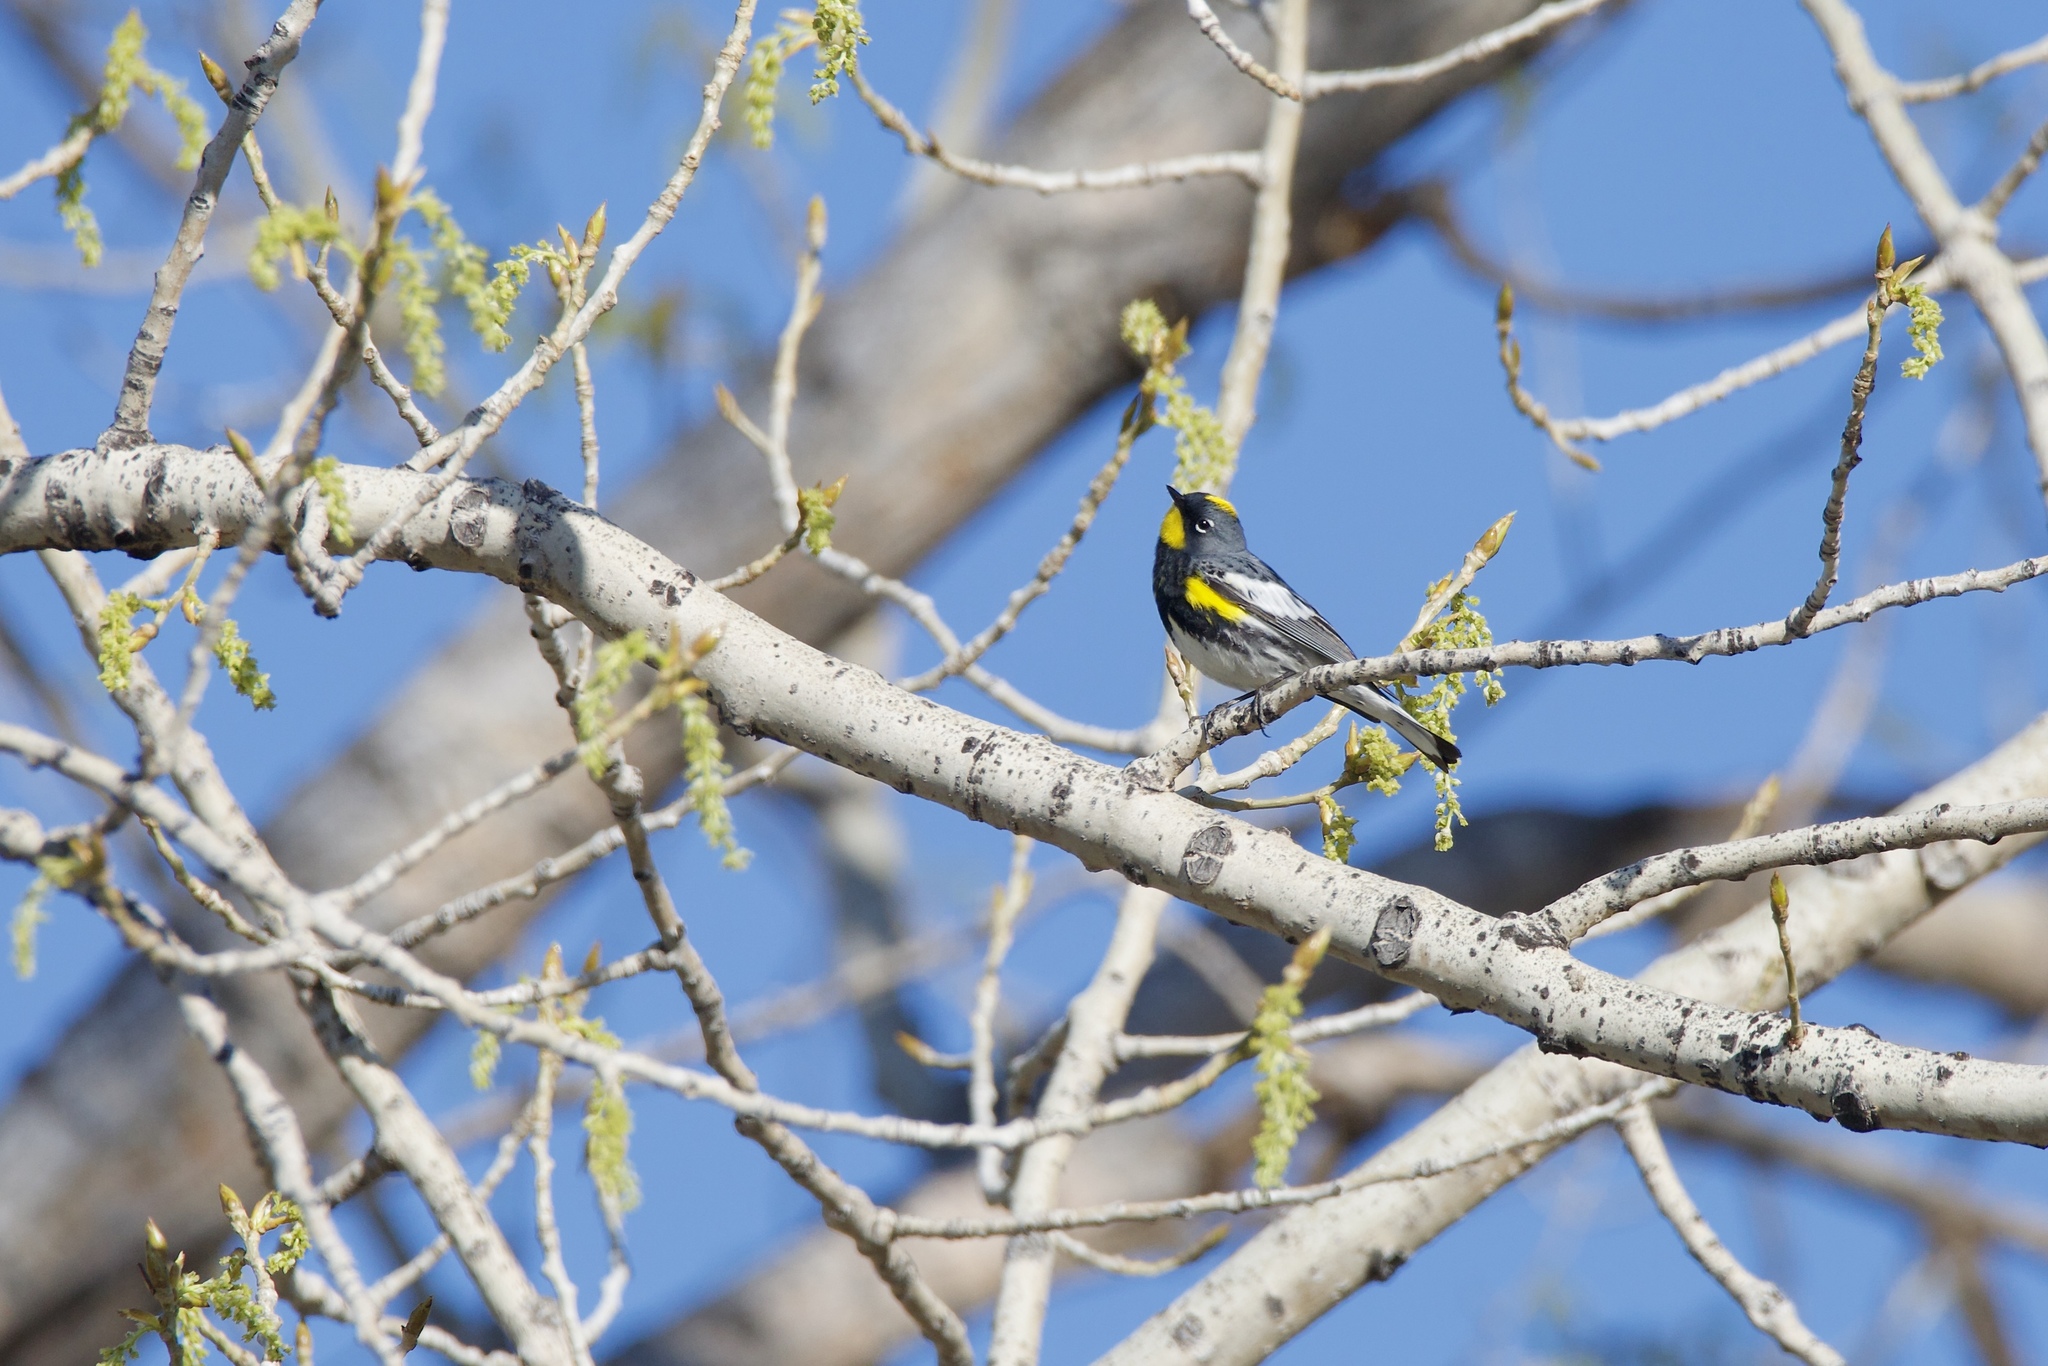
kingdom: Animalia
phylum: Chordata
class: Aves
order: Passeriformes
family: Parulidae
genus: Setophaga
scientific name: Setophaga coronata
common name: Myrtle warbler
